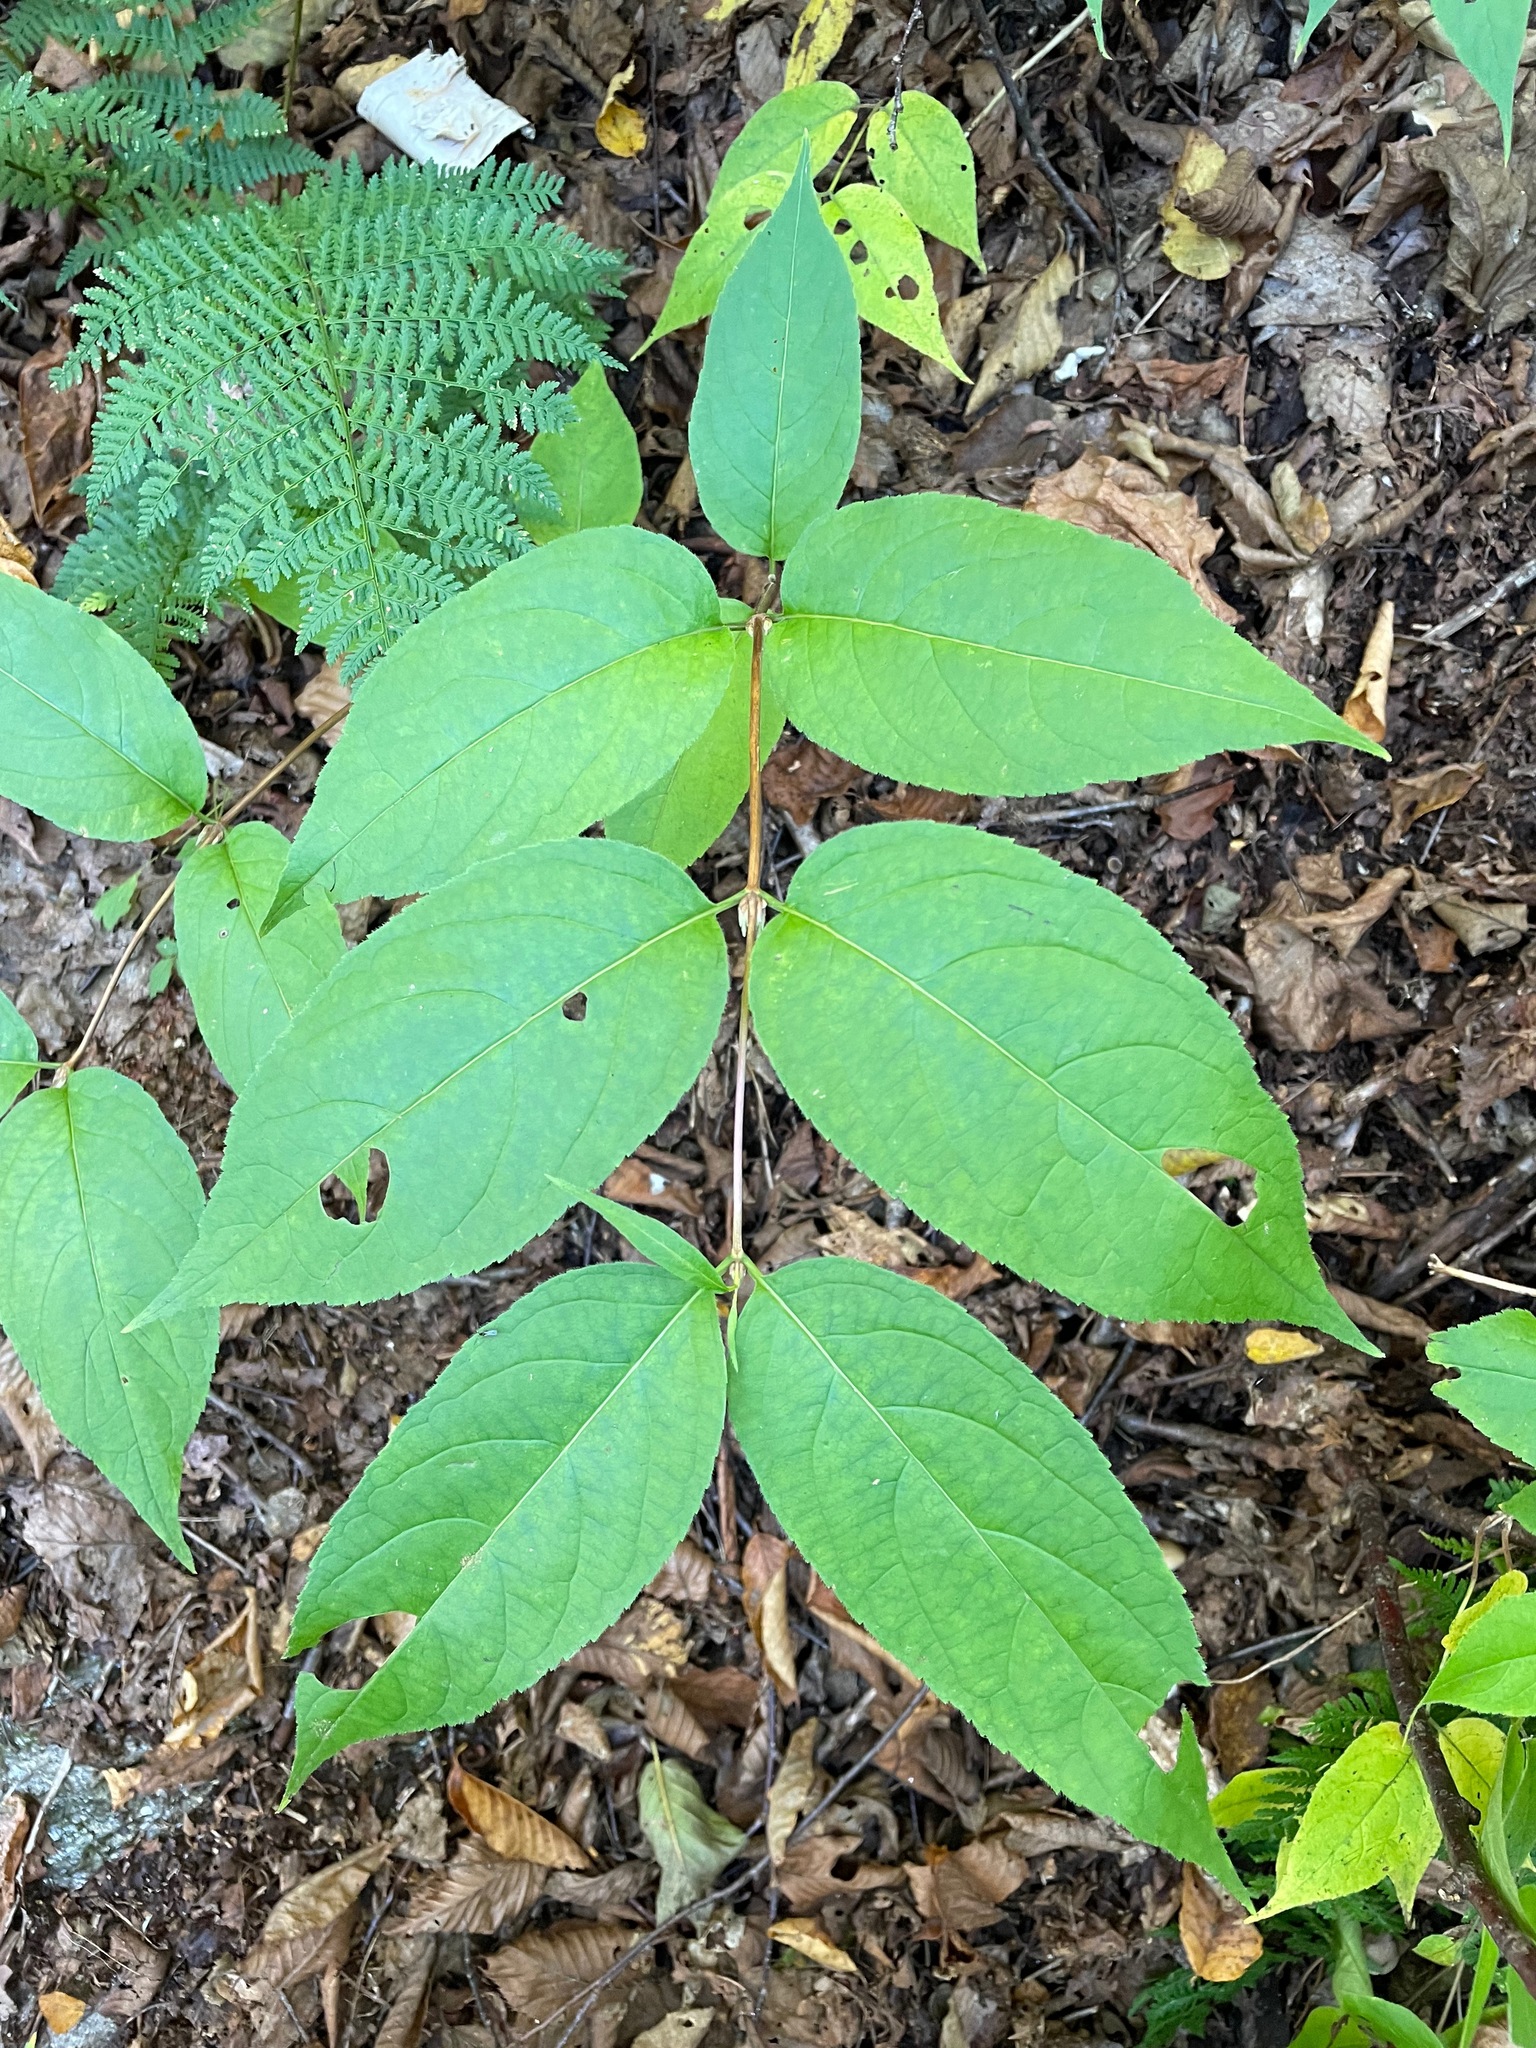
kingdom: Plantae
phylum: Tracheophyta
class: Magnoliopsida
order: Dipsacales
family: Caprifoliaceae
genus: Diervilla
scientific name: Diervilla lonicera
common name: Bush-honeysuckle
